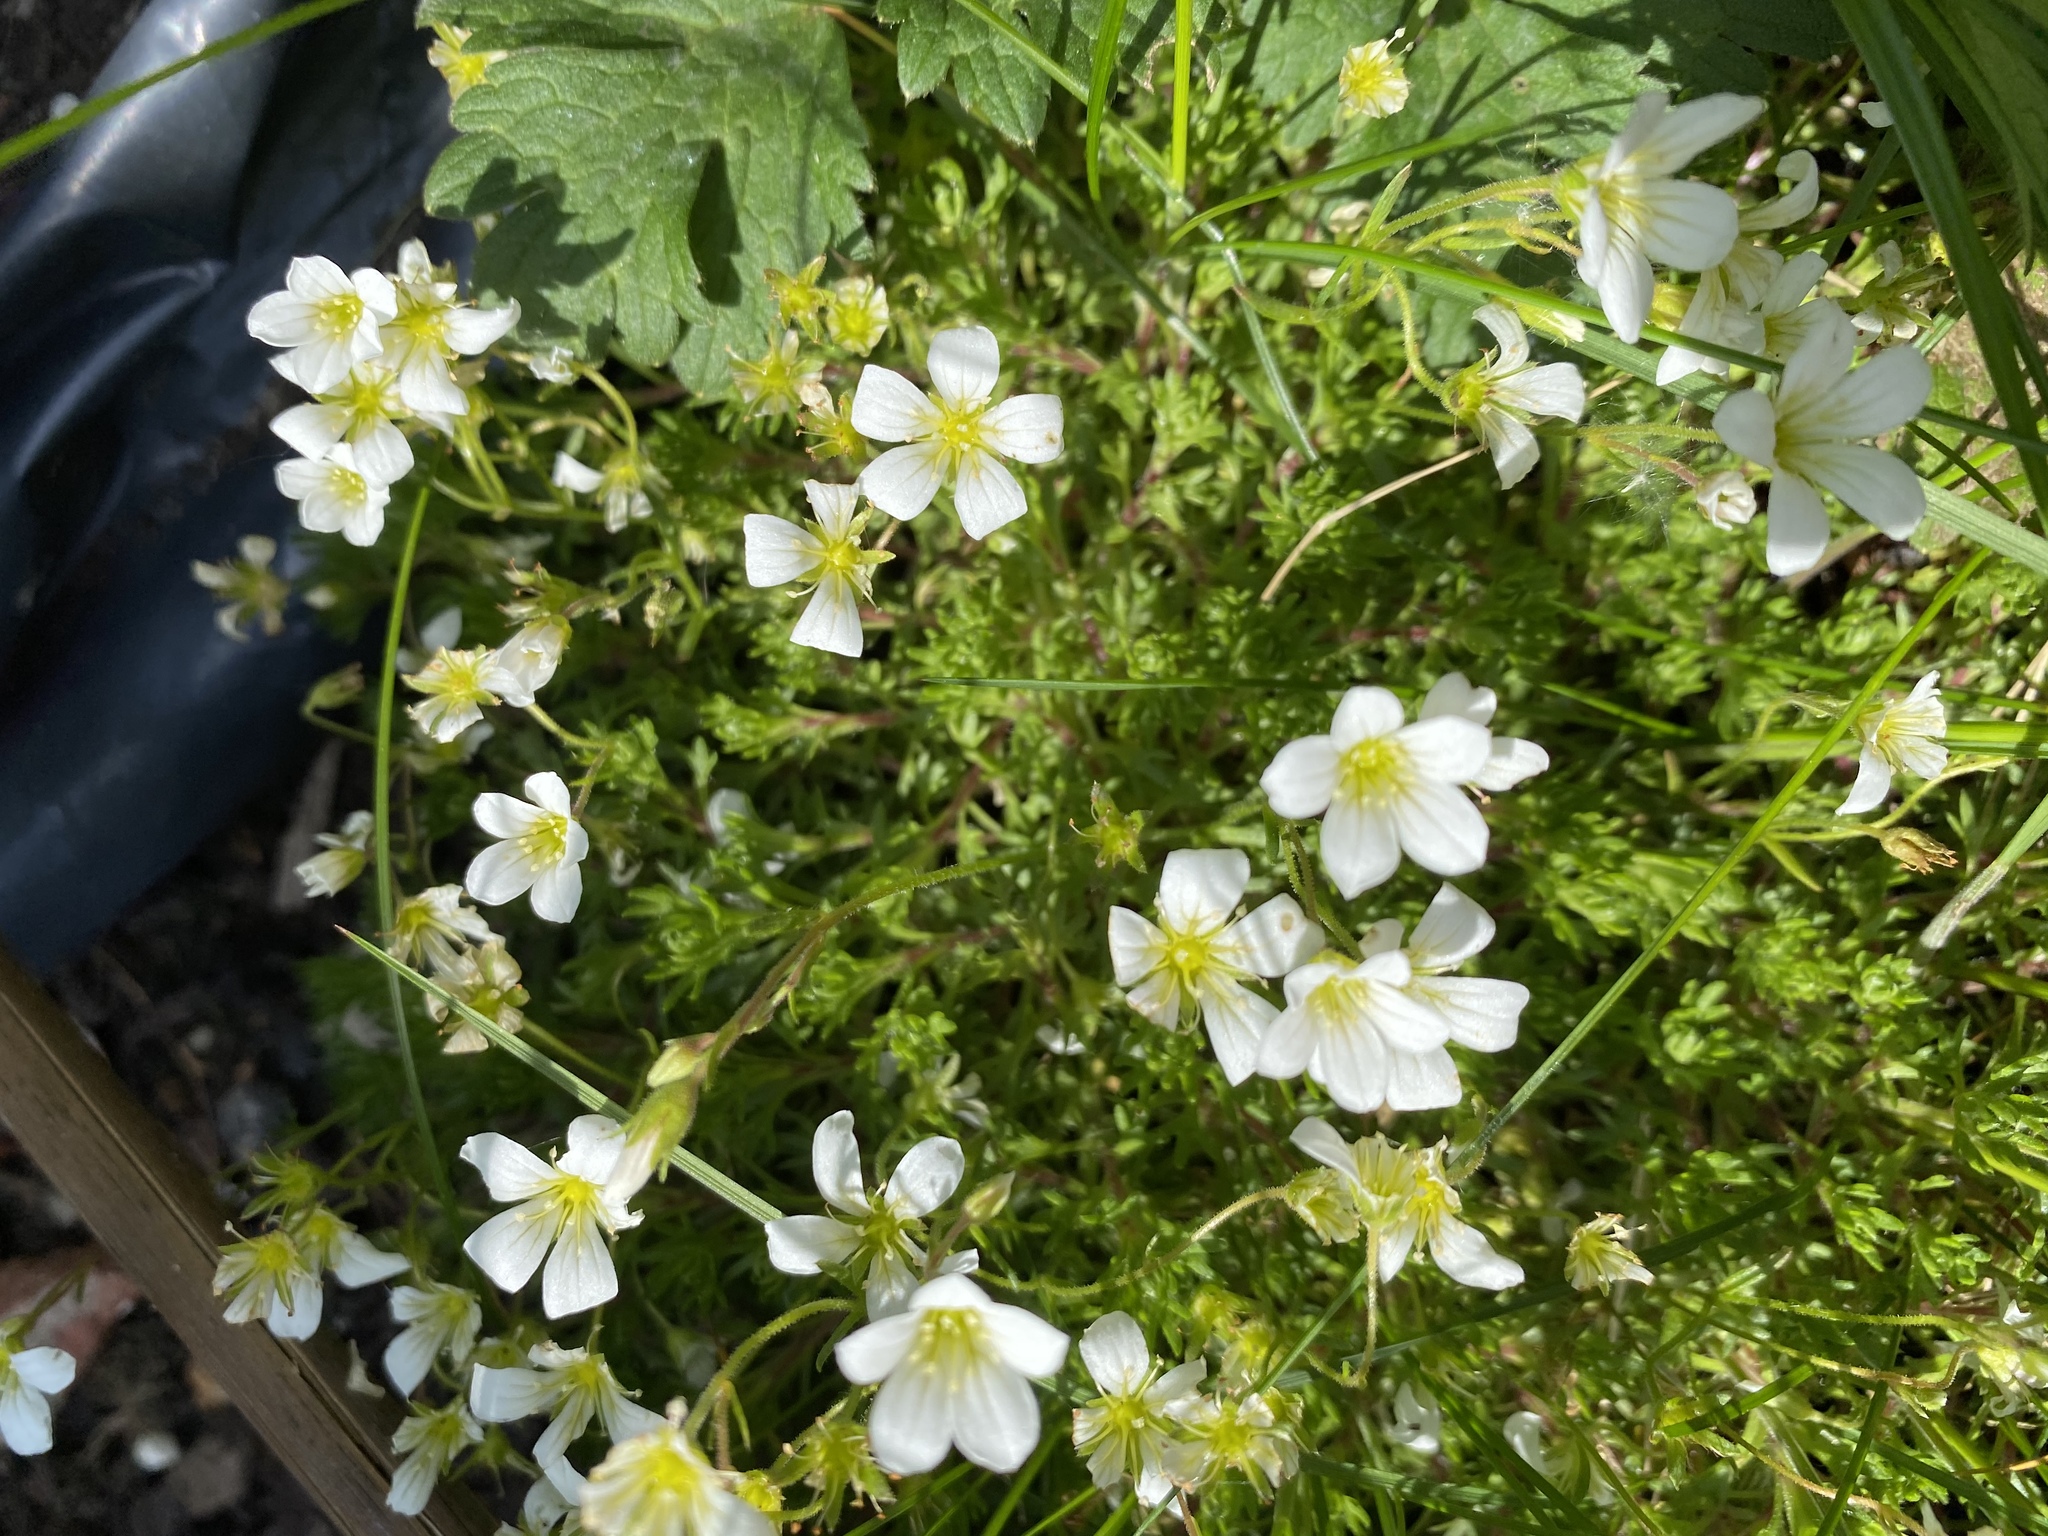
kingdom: Plantae
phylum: Tracheophyta
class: Magnoliopsida
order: Saxifragales
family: Saxifragaceae
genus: Saxifraga
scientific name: Saxifraga granulata
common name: Meadow saxifrage
